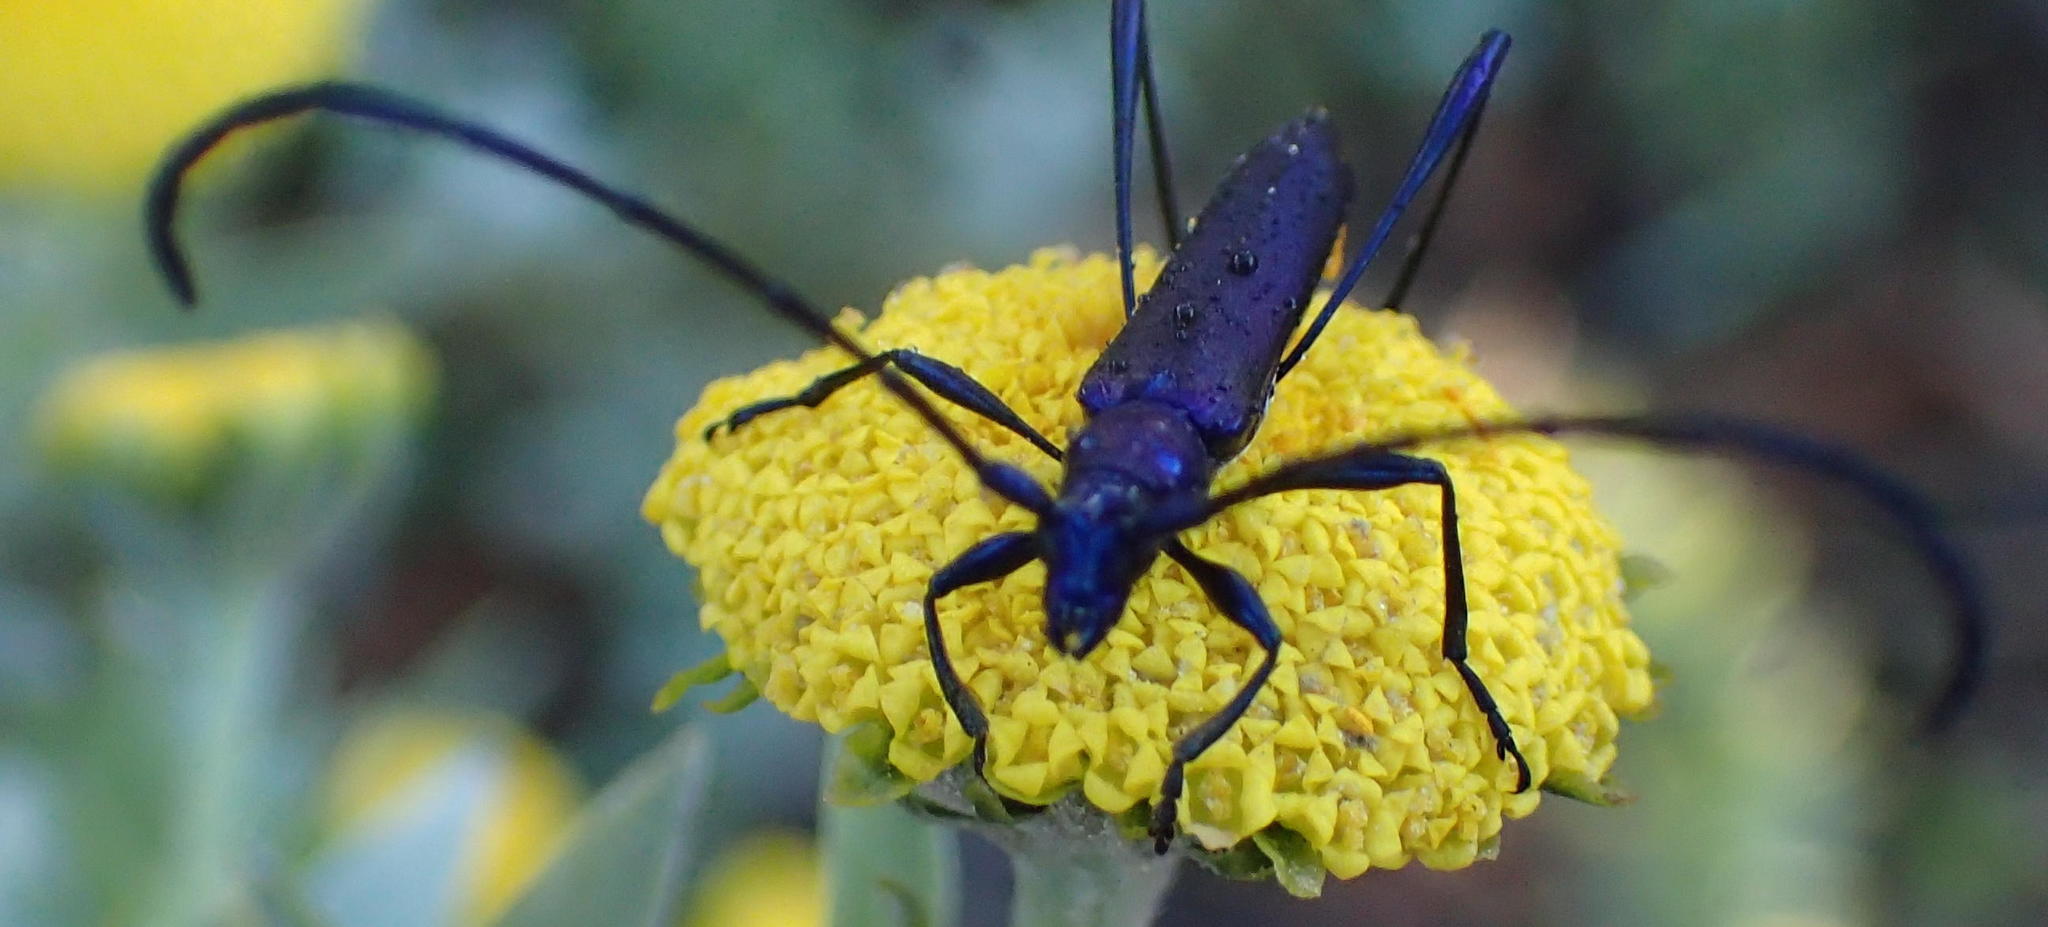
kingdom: Animalia
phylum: Arthropoda
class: Insecta
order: Coleoptera
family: Cerambycidae
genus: Promeces
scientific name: Promeces longipes
